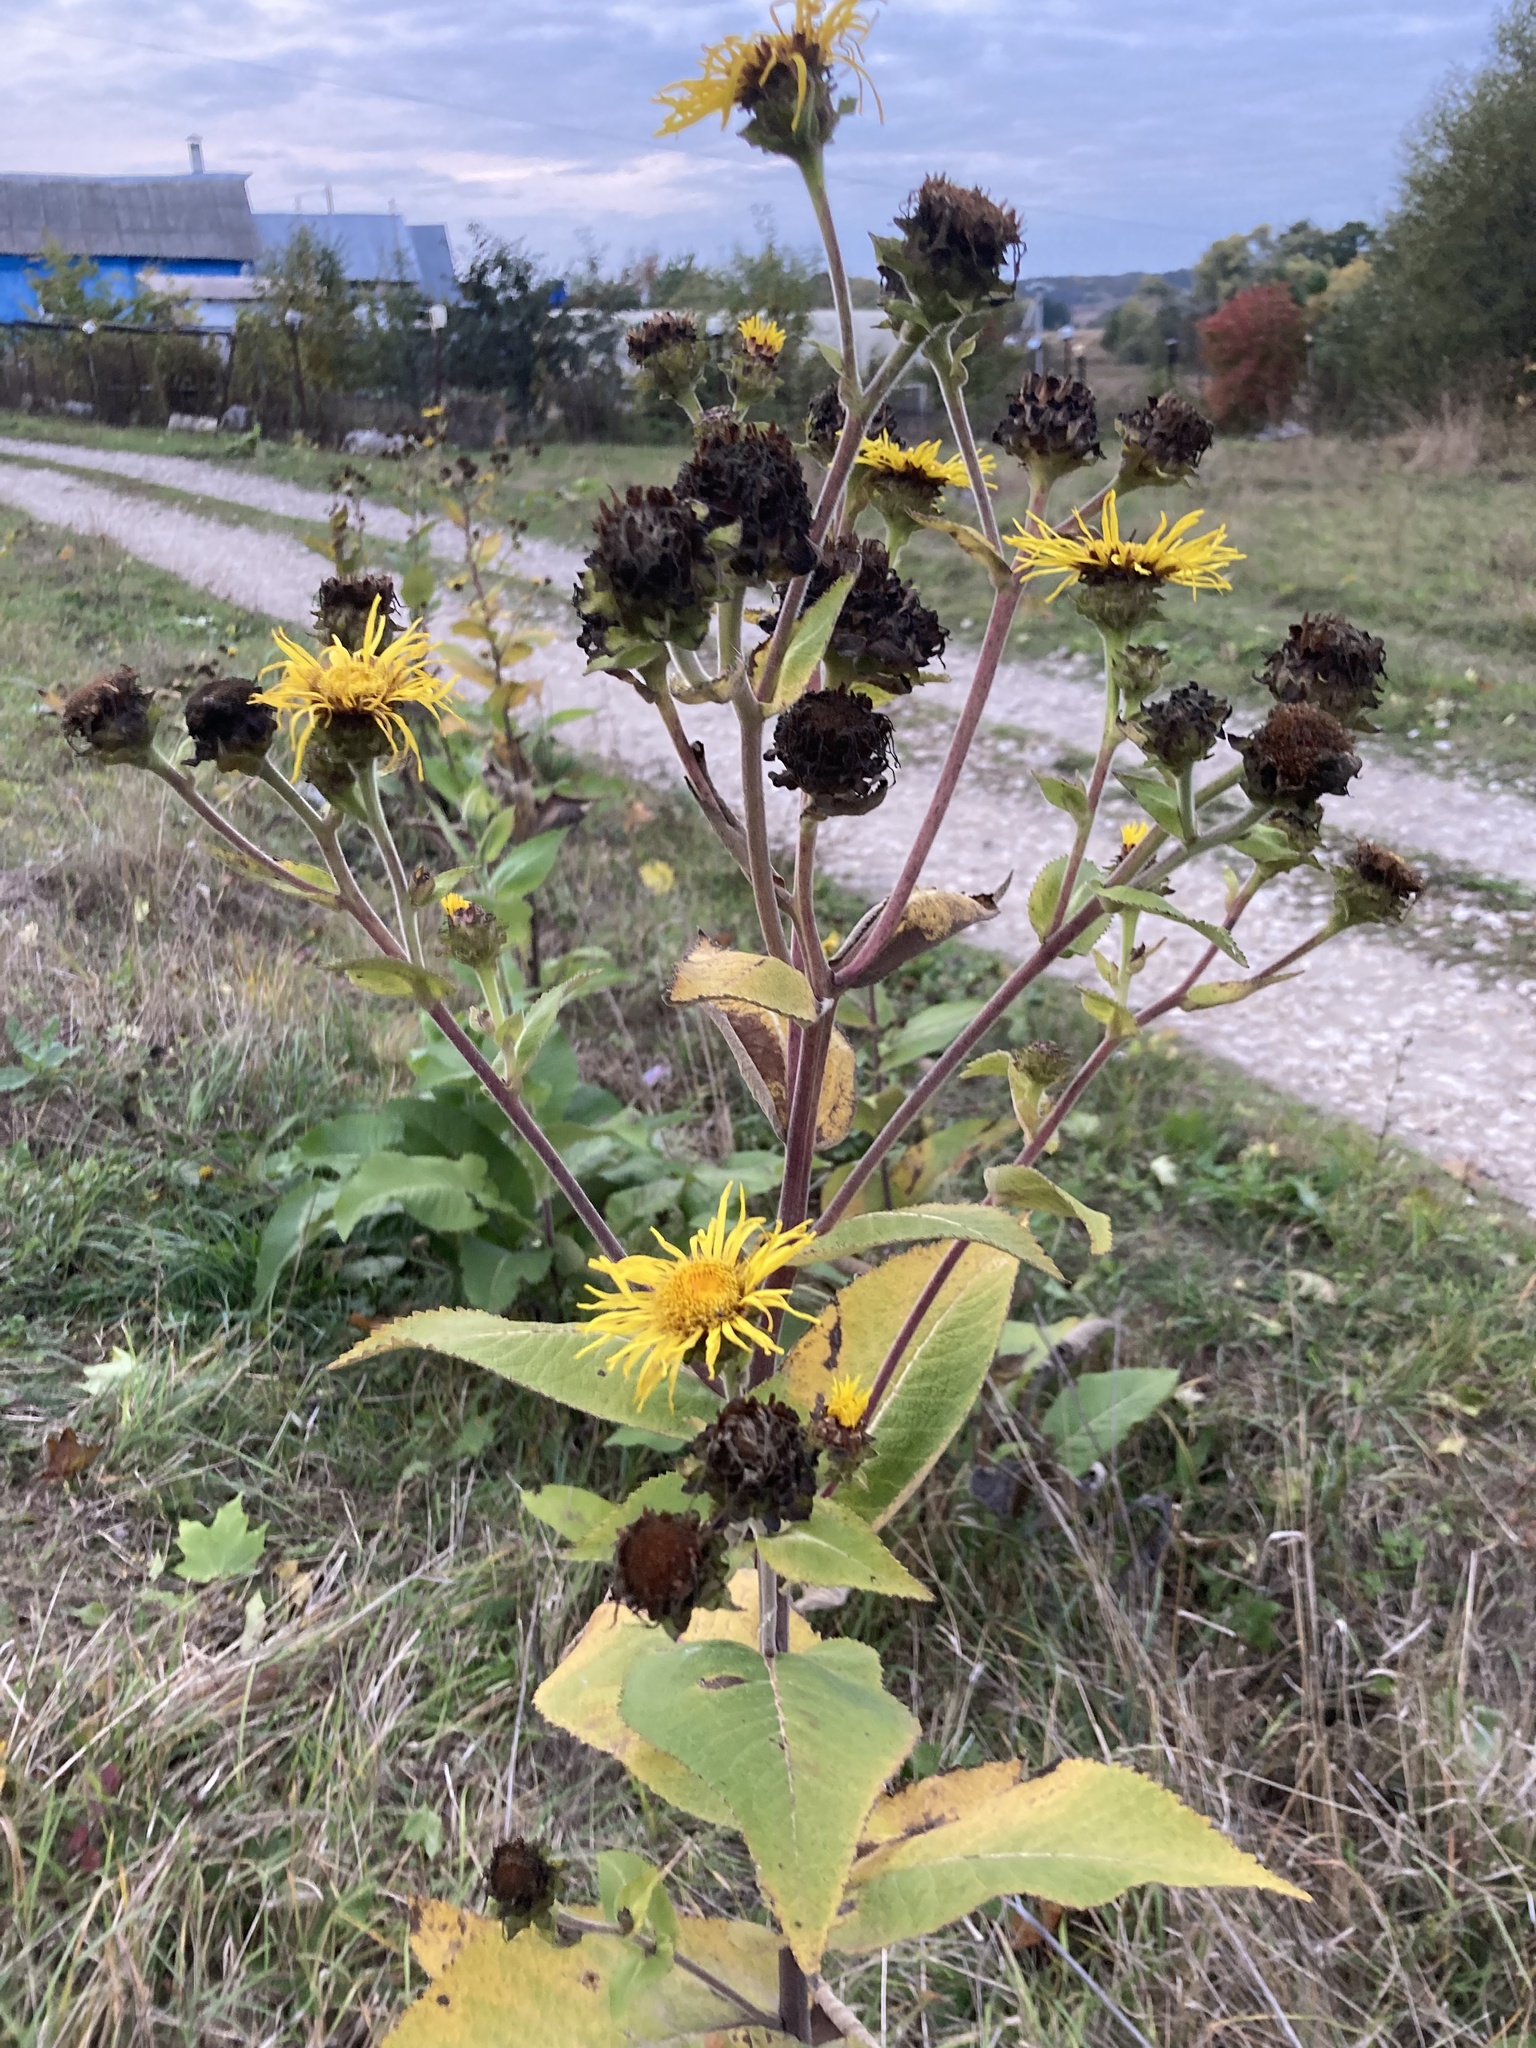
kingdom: Plantae
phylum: Tracheophyta
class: Magnoliopsida
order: Asterales
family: Asteraceae
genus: Inula
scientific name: Inula helenium
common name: Elecampane
